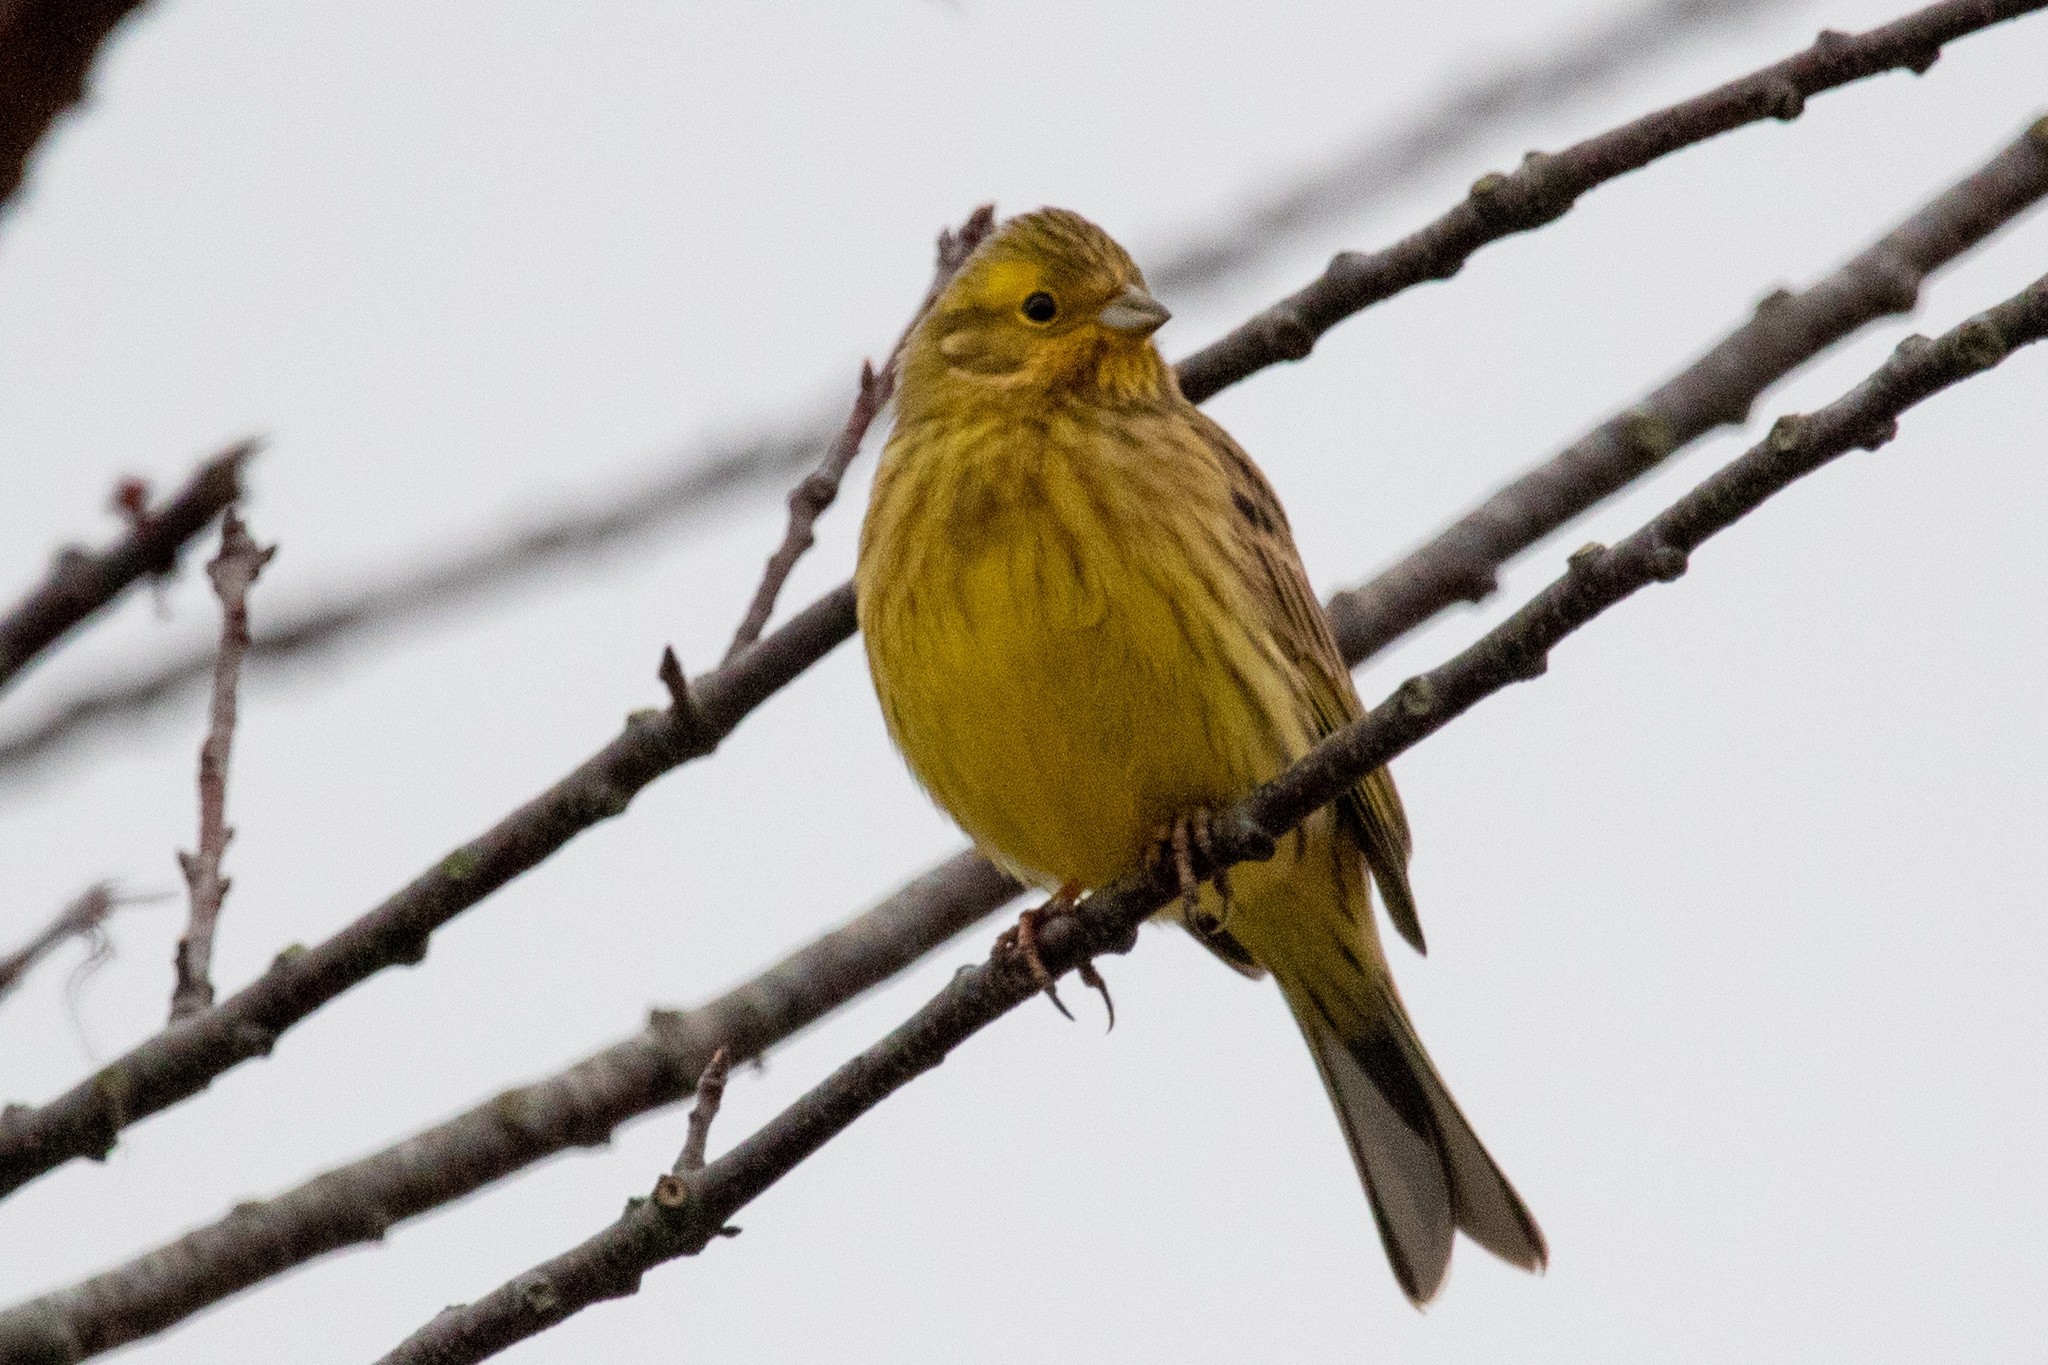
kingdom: Animalia
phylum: Chordata
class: Aves
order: Passeriformes
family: Emberizidae
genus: Emberiza
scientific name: Emberiza citrinella
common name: Yellowhammer
